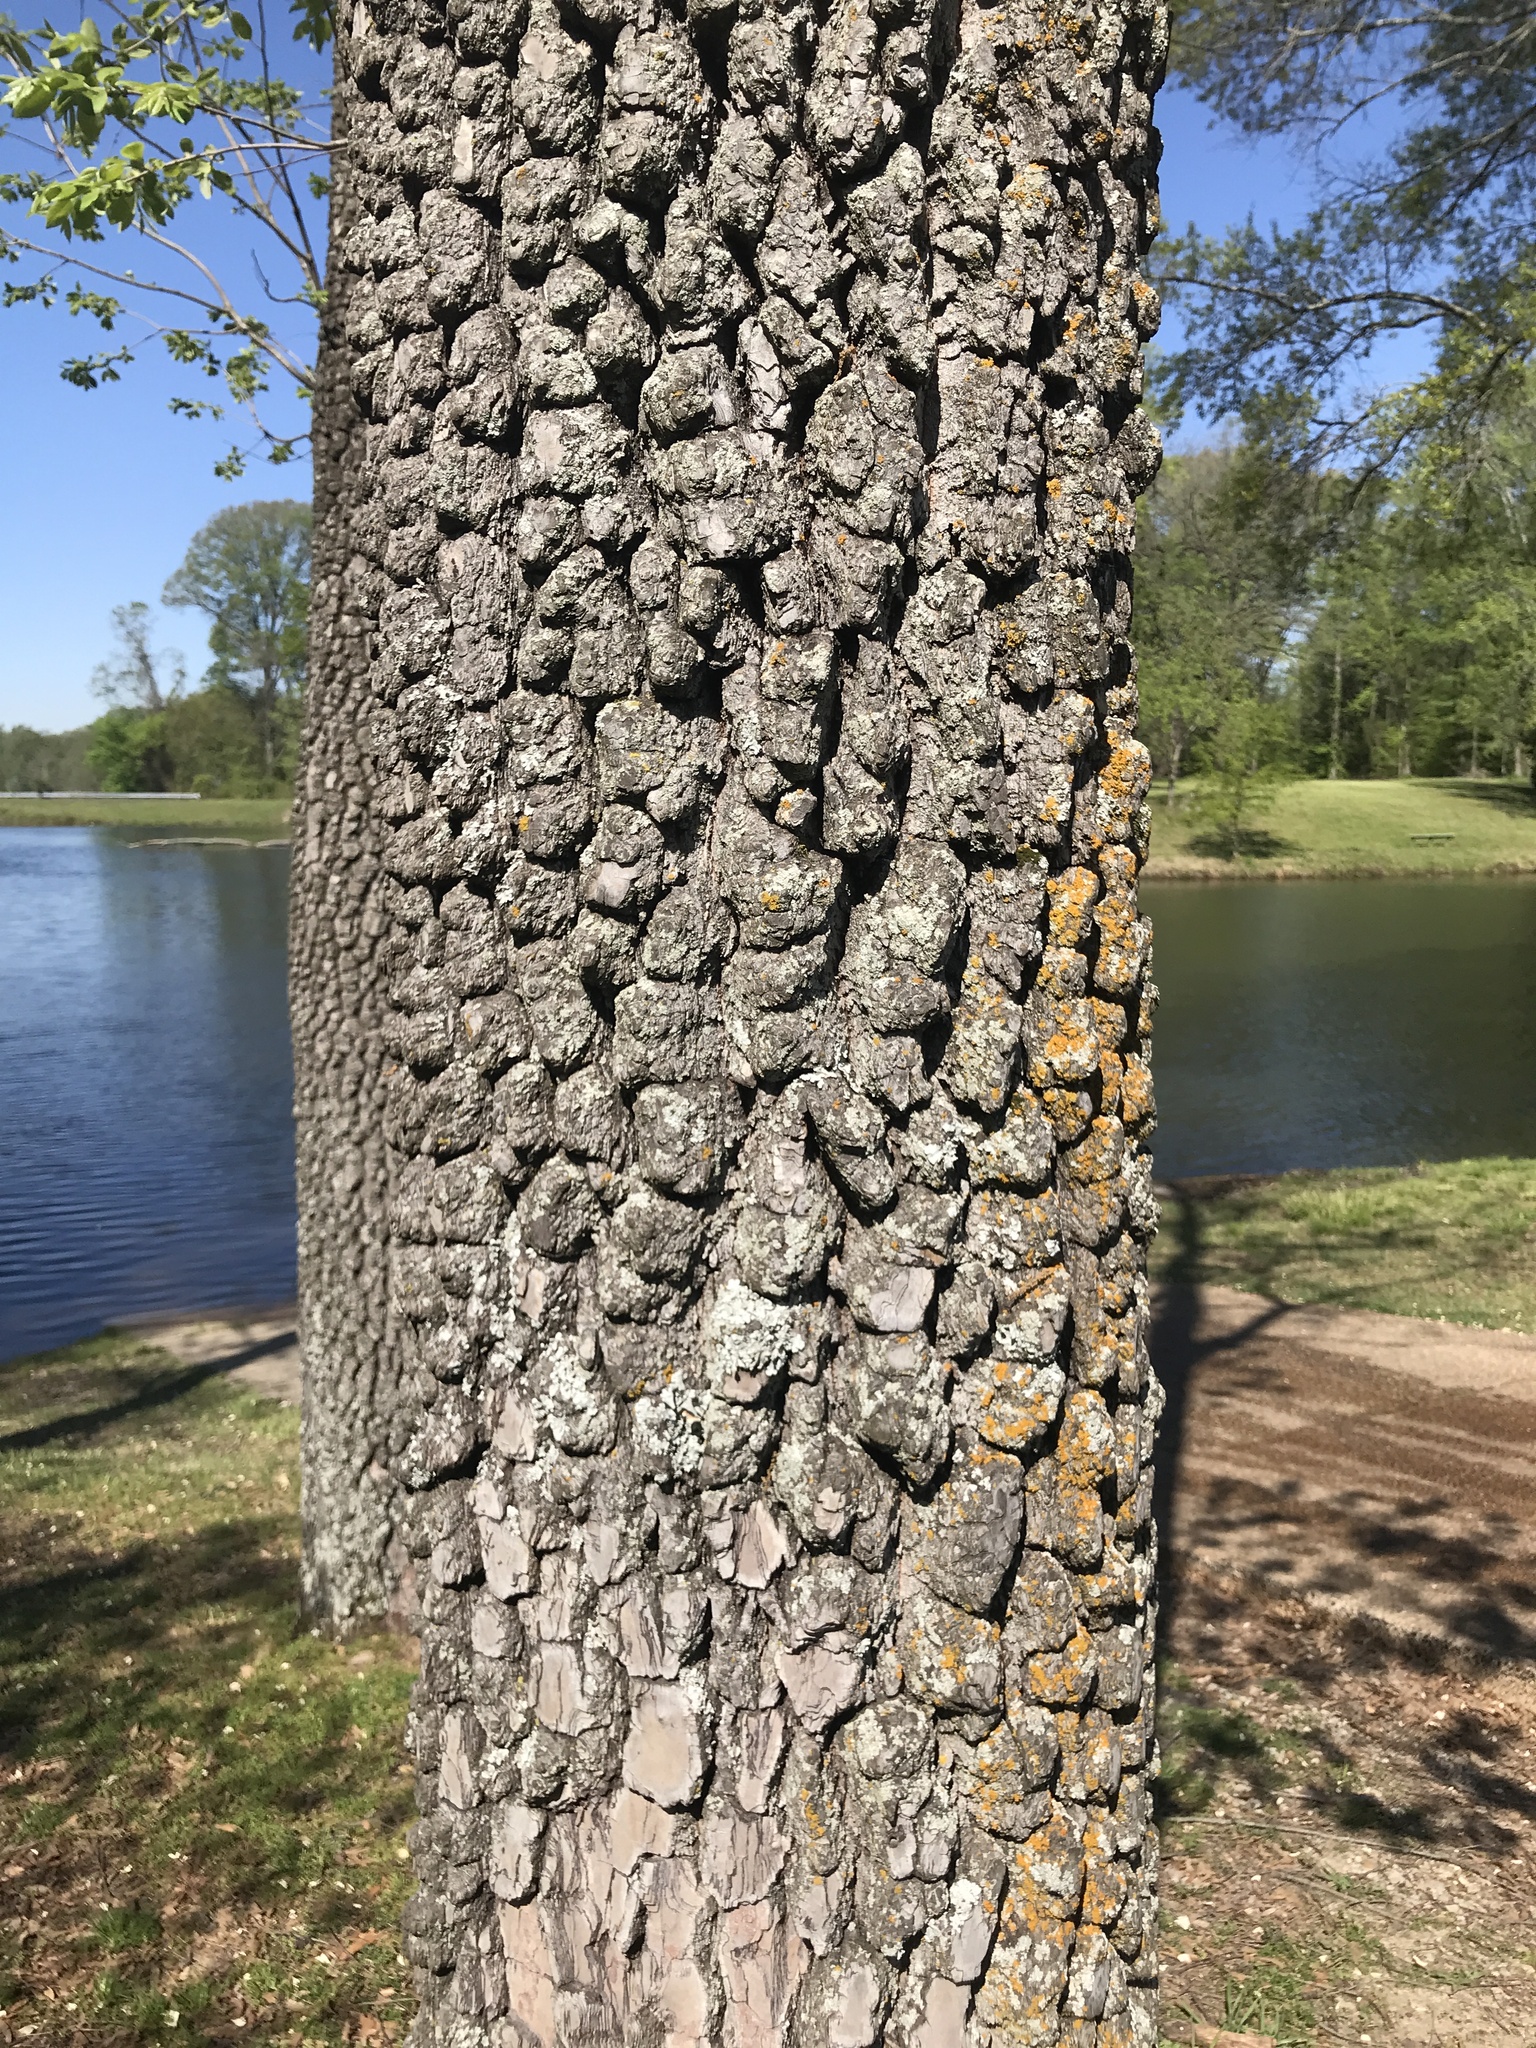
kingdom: Plantae
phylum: Tracheophyta
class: Magnoliopsida
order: Ericales
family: Ebenaceae
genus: Diospyros
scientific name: Diospyros virginiana
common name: Persimmon
